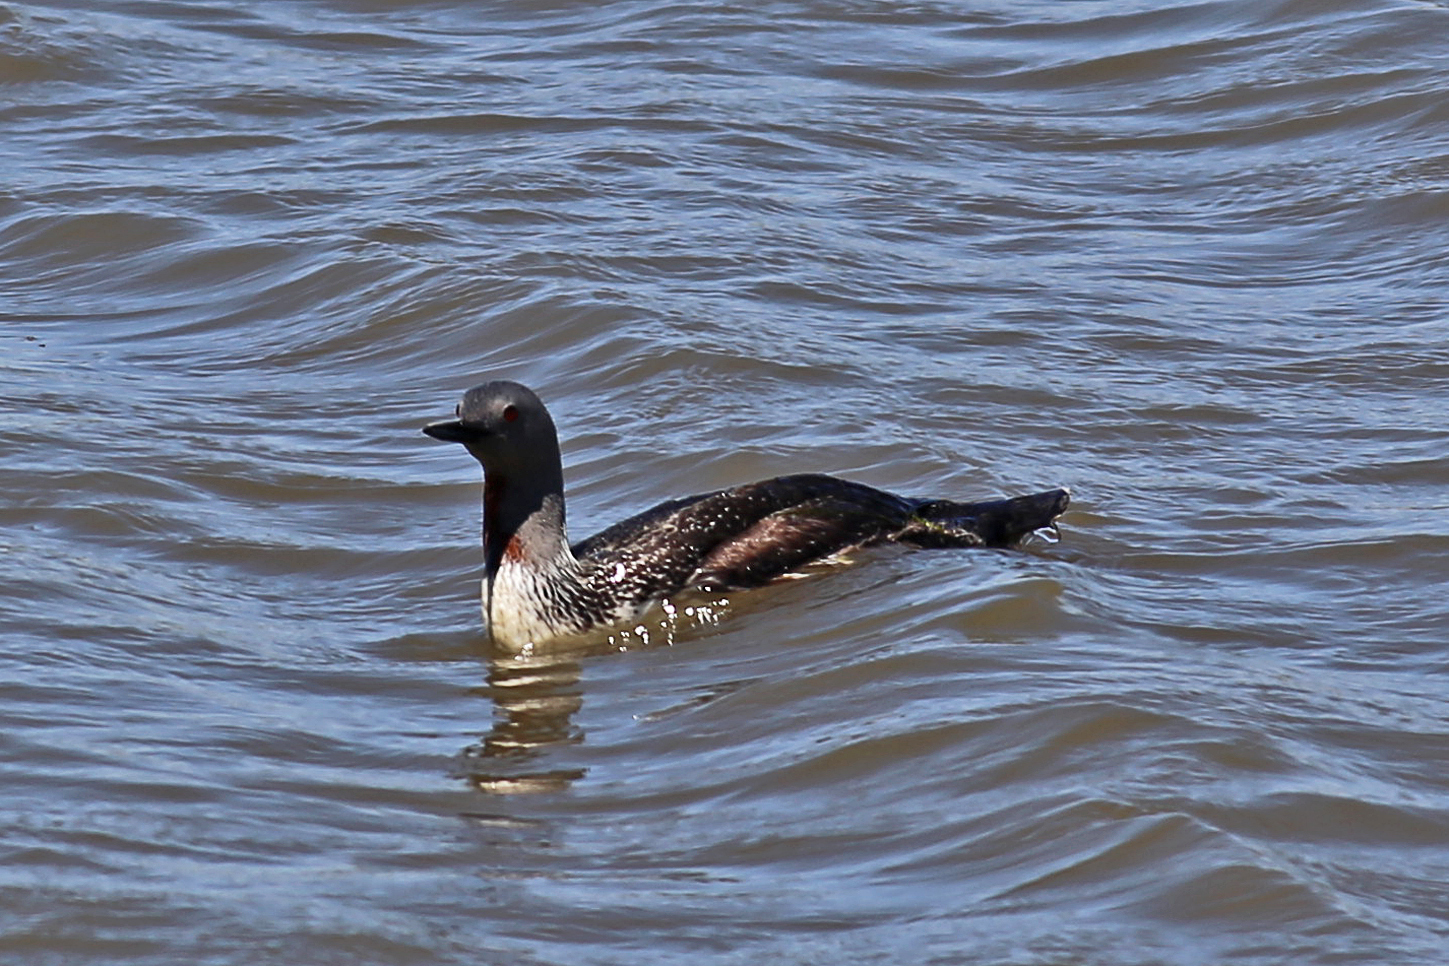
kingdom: Animalia
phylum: Chordata
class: Aves
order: Gaviiformes
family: Gaviidae
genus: Gavia
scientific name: Gavia stellata
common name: Red-throated loon
